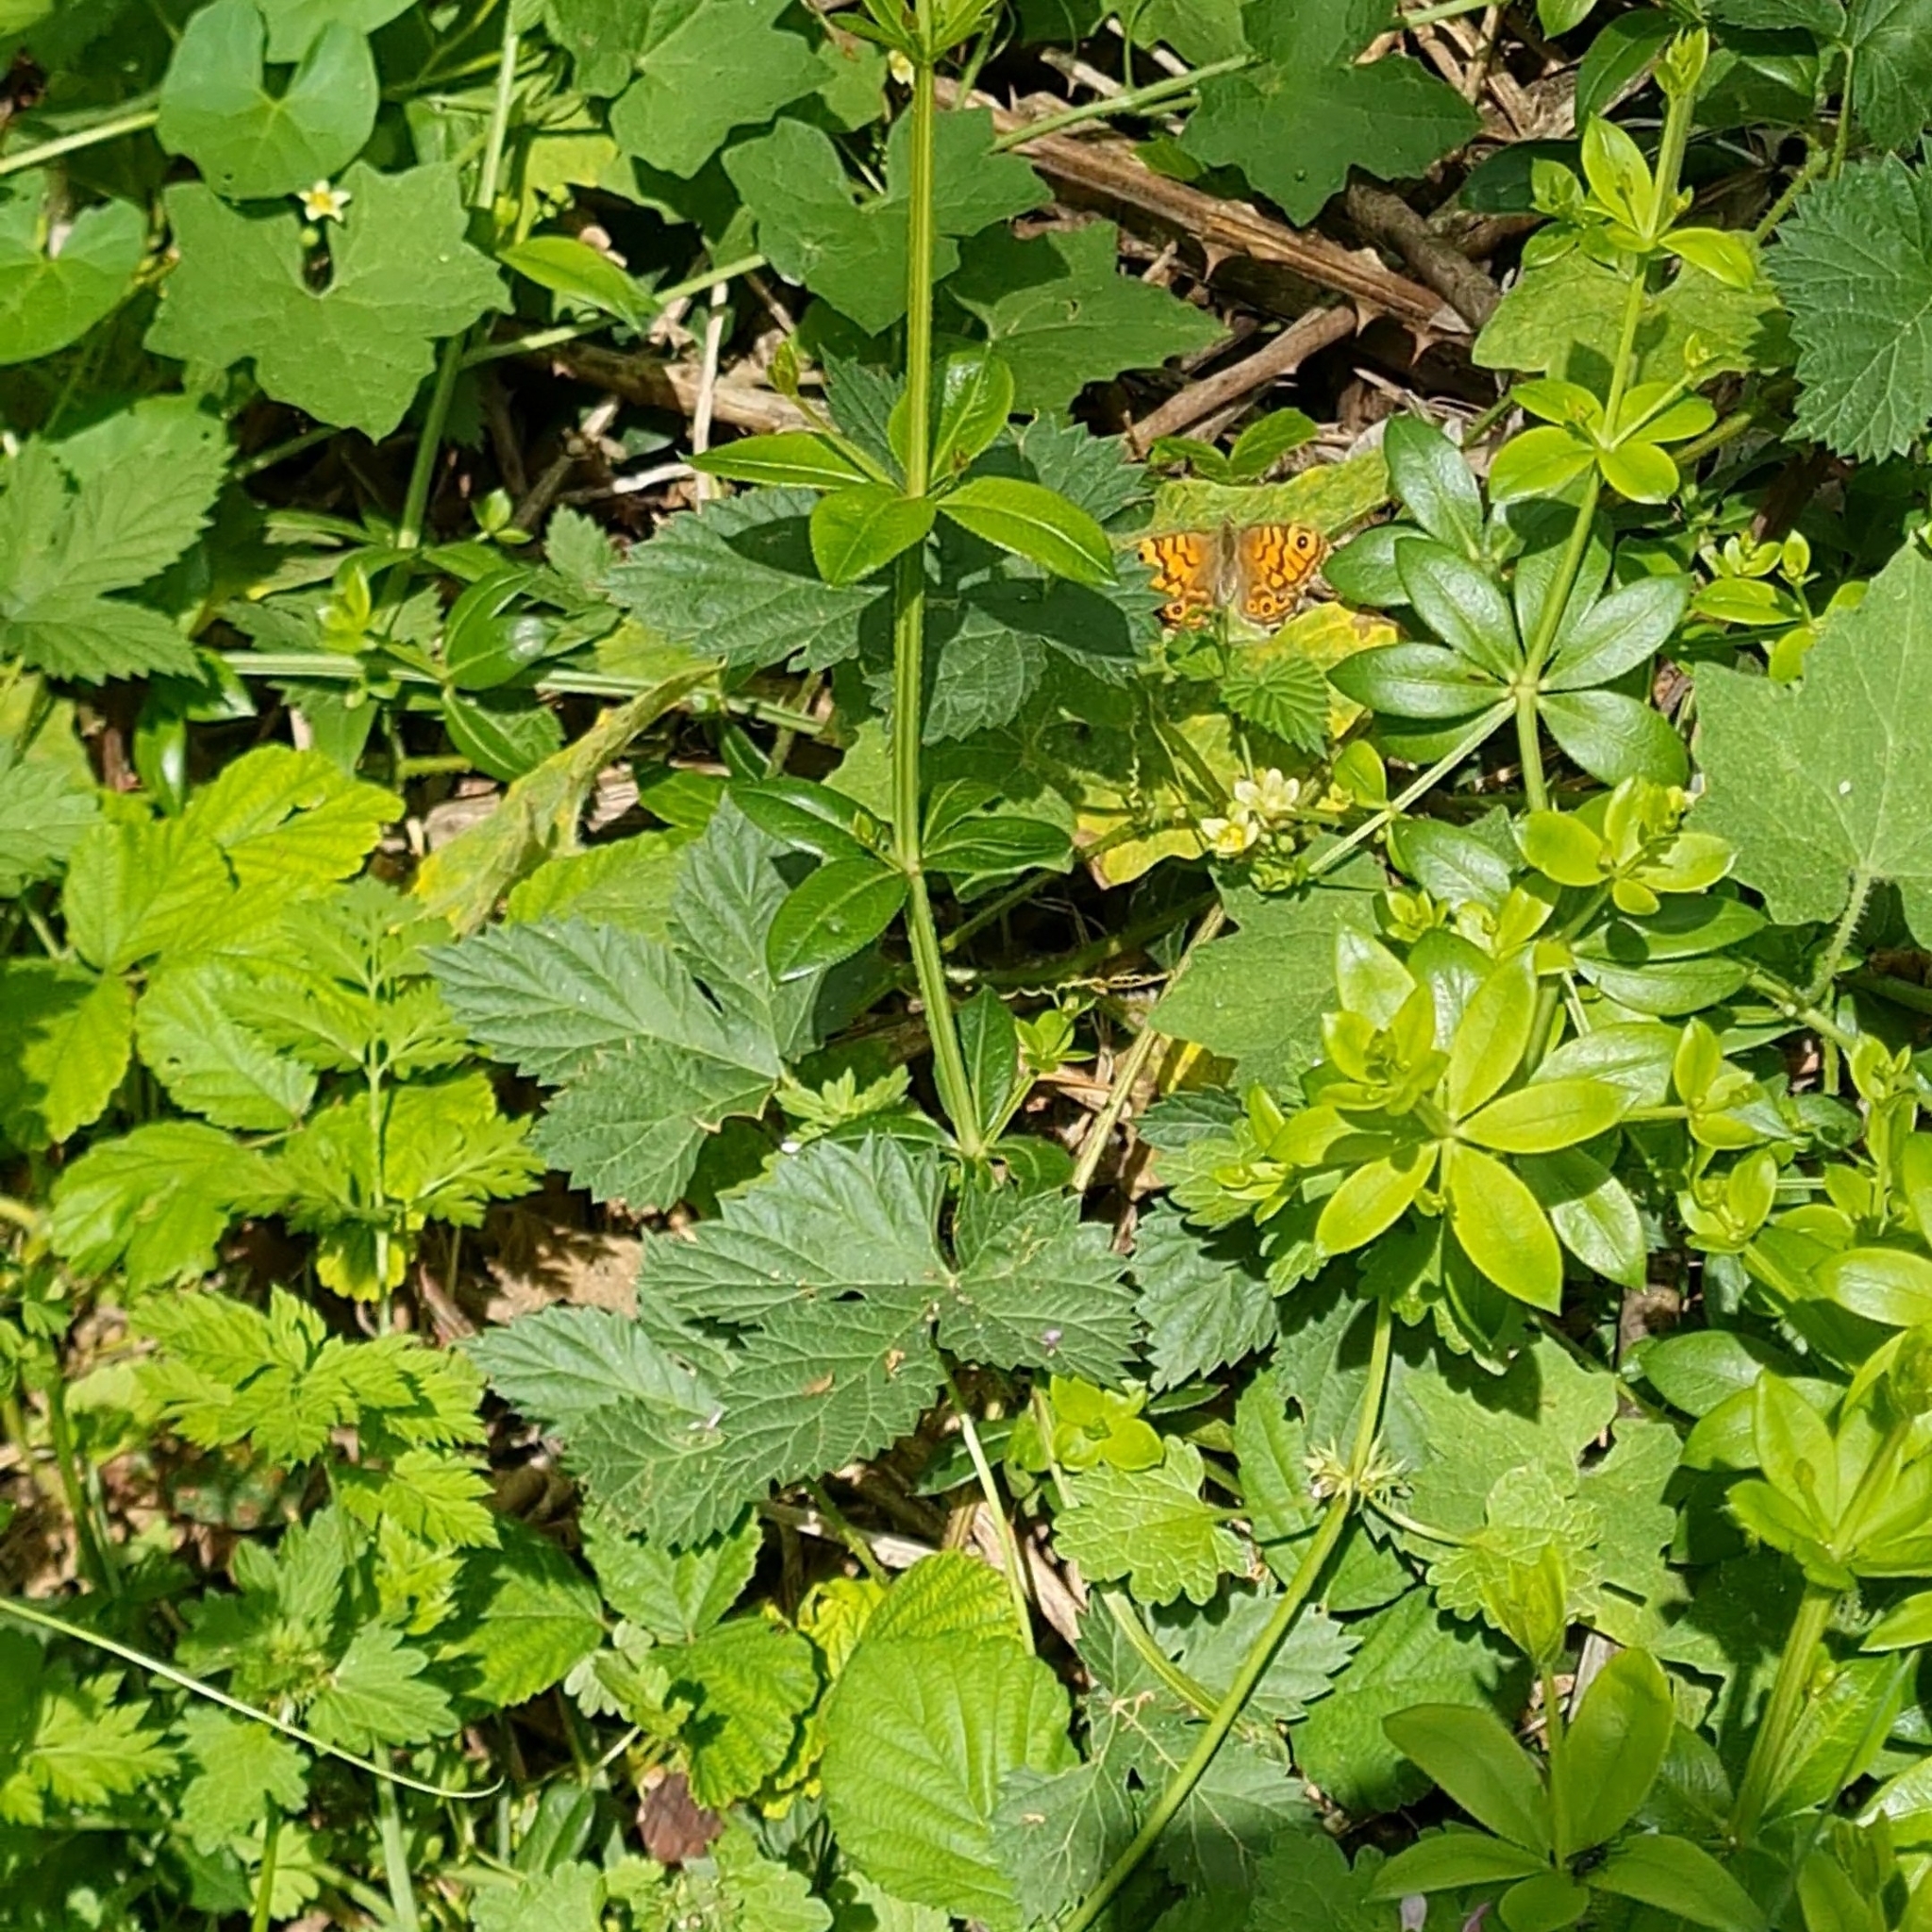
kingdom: Animalia
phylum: Arthropoda
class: Insecta
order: Lepidoptera
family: Nymphalidae
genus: Pararge
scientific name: Pararge Lasiommata megera
